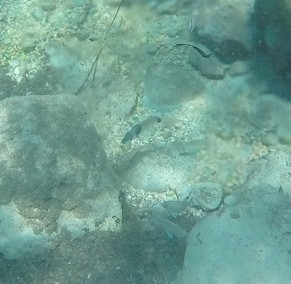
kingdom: Animalia
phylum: Chordata
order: Perciformes
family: Sparidae
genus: Diplodus
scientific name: Diplodus vulgaris
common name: Common two-banded seabream
